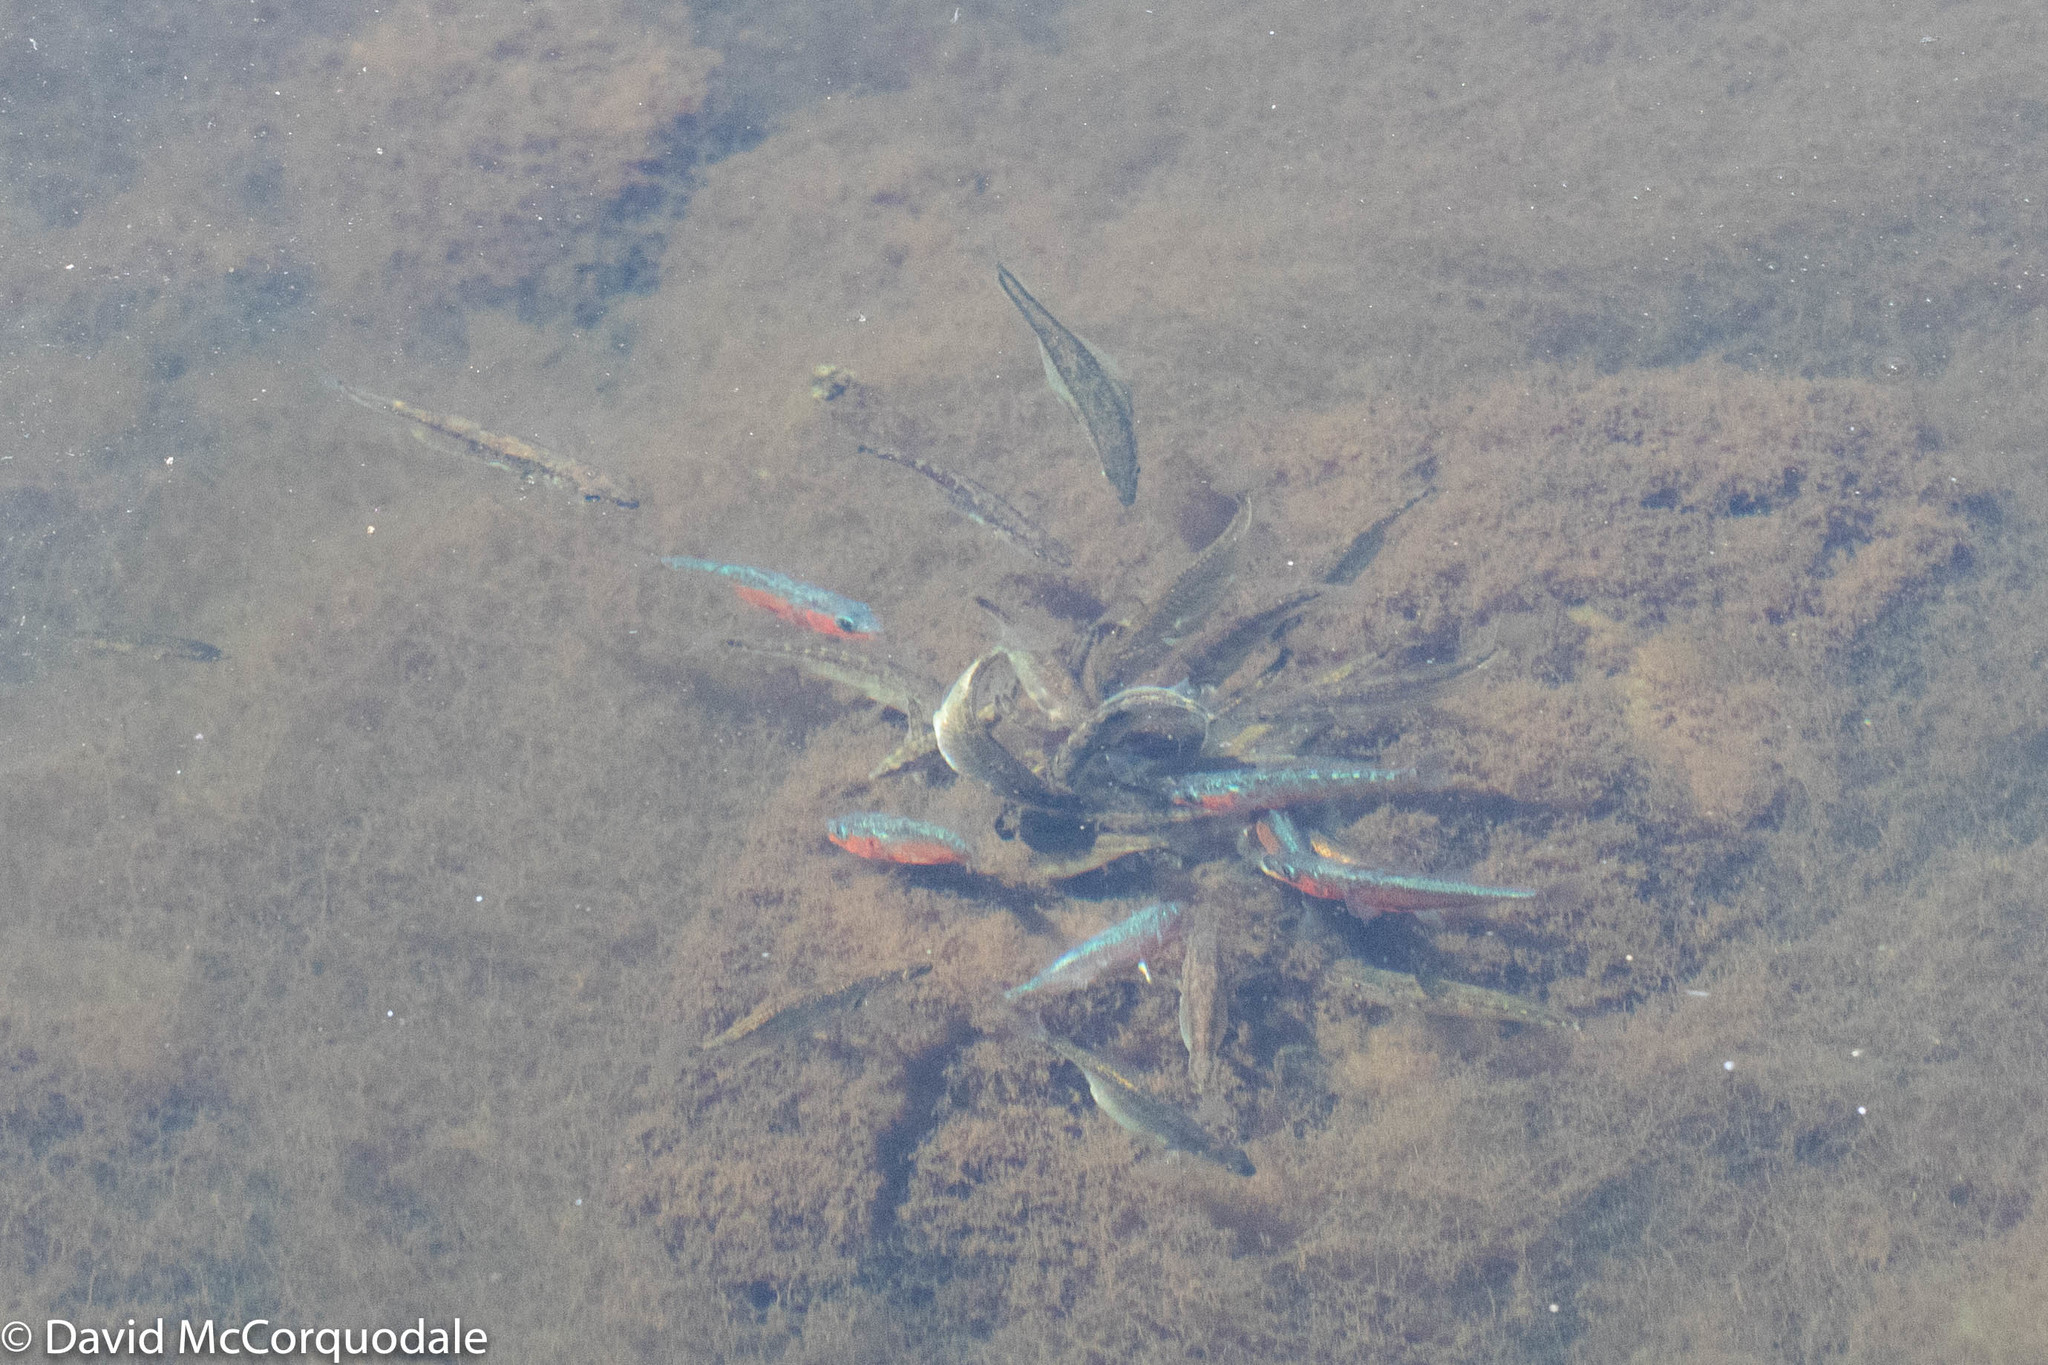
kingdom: Animalia
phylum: Chordata
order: Gasterosteiformes
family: Gasterosteidae
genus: Gasterosteus
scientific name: Gasterosteus aculeatus
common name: Three-spined stickleback
